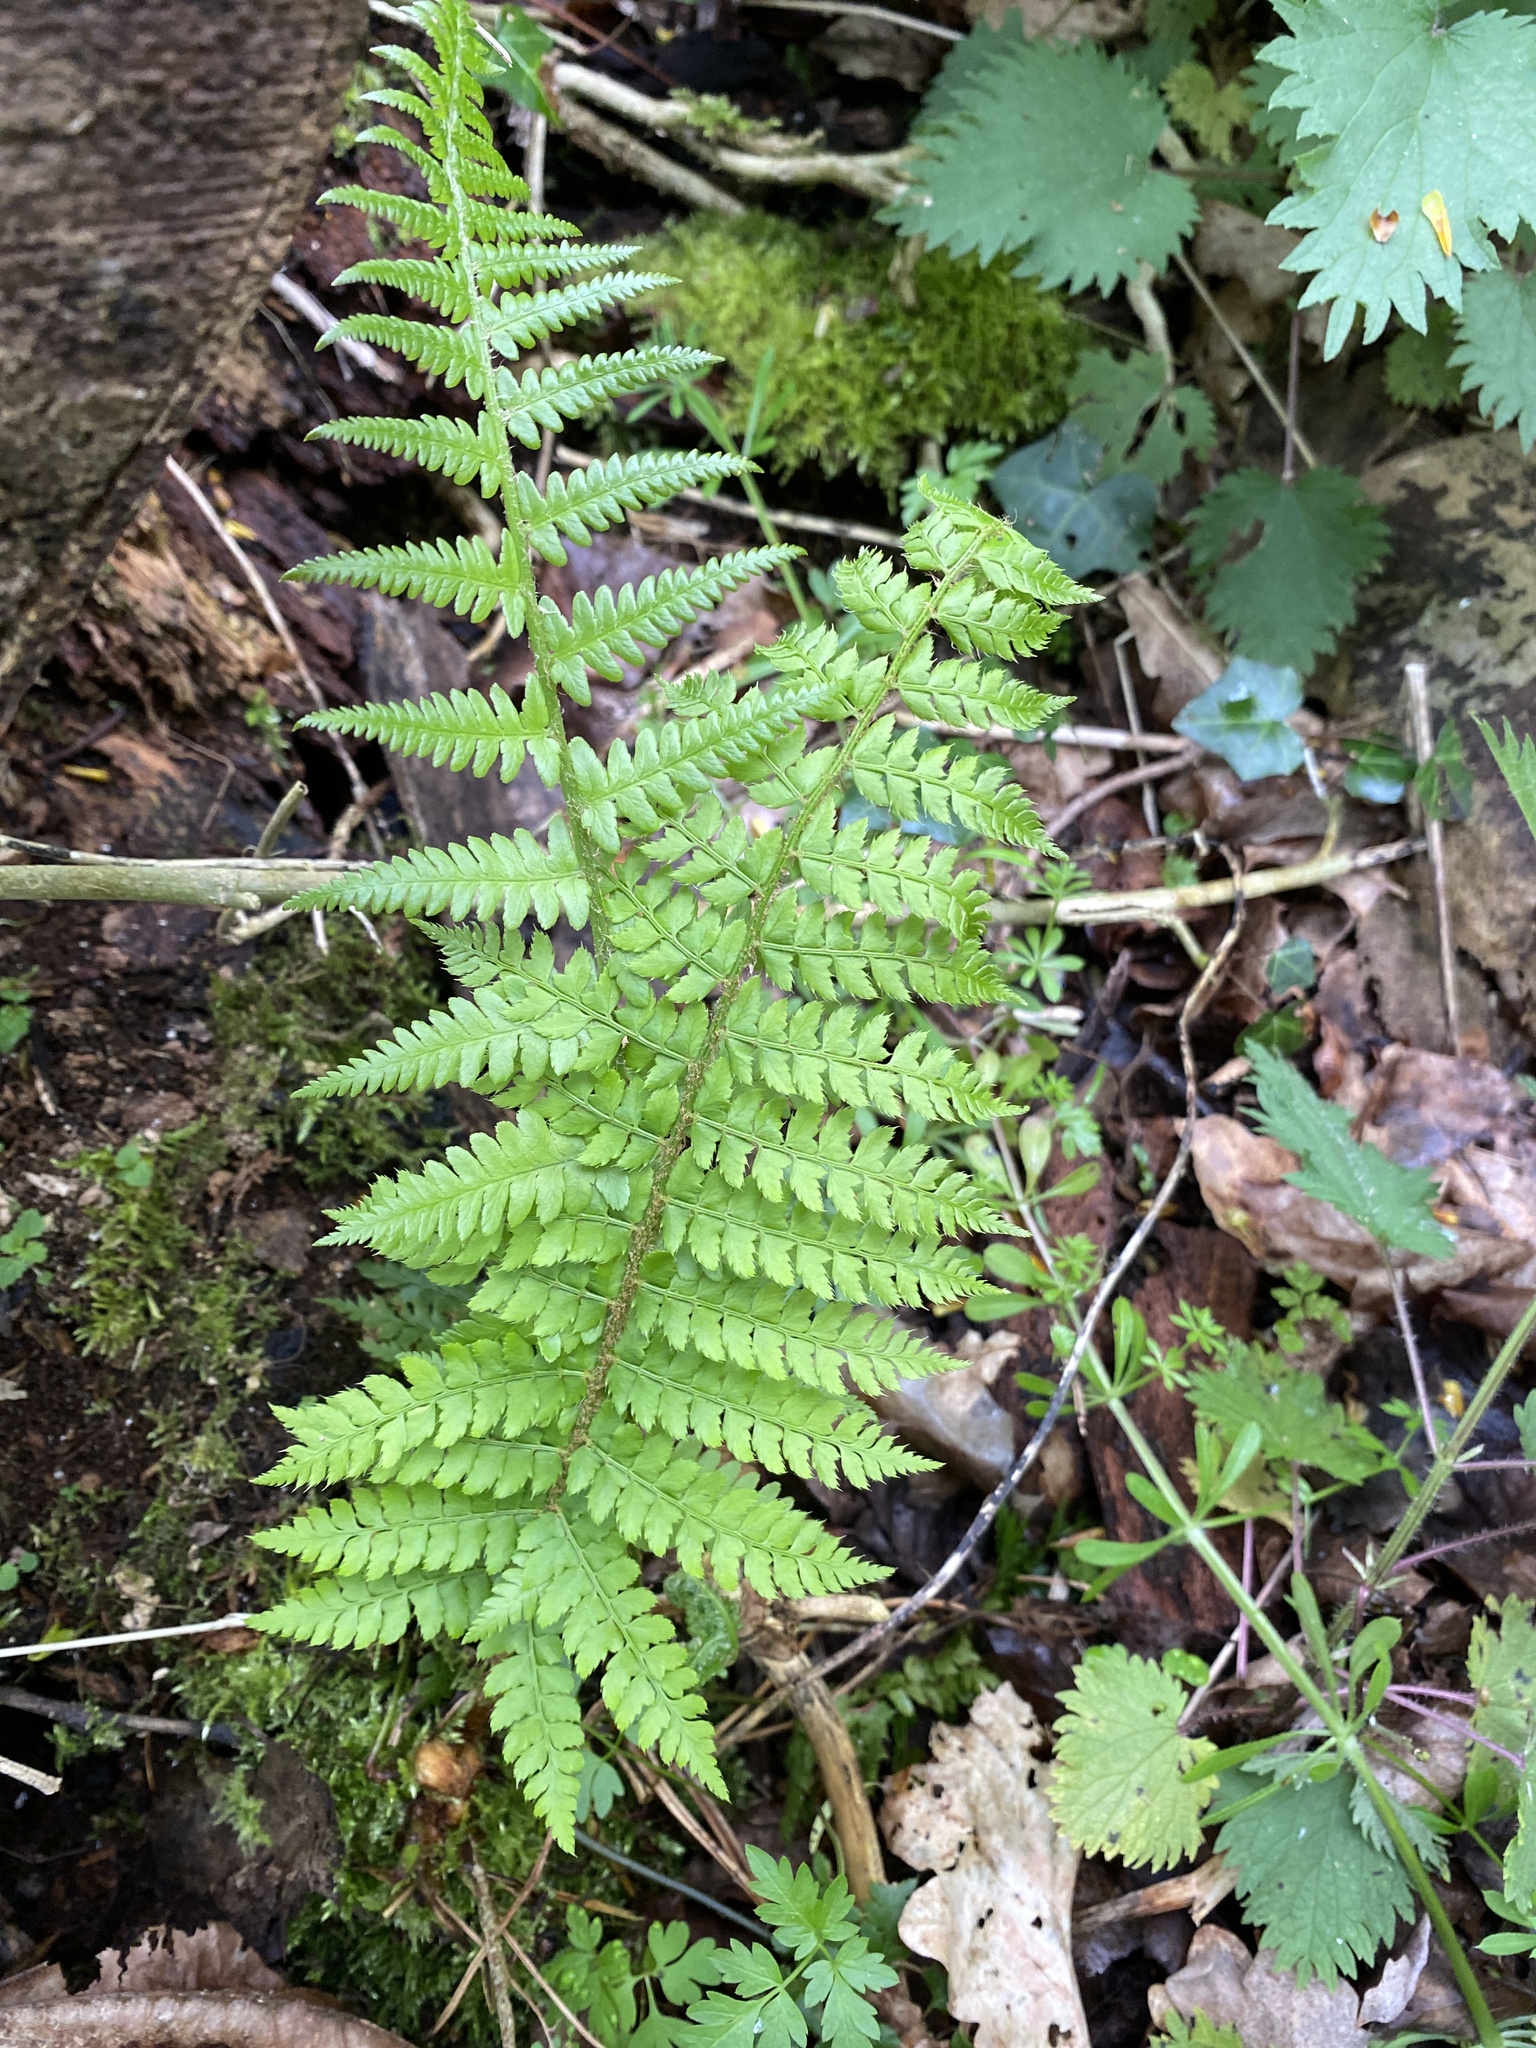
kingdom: Plantae
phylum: Tracheophyta
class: Polypodiopsida
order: Polypodiales
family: Dryopteridaceae
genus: Polystichum
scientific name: Polystichum setiferum
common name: Soft shield-fern
